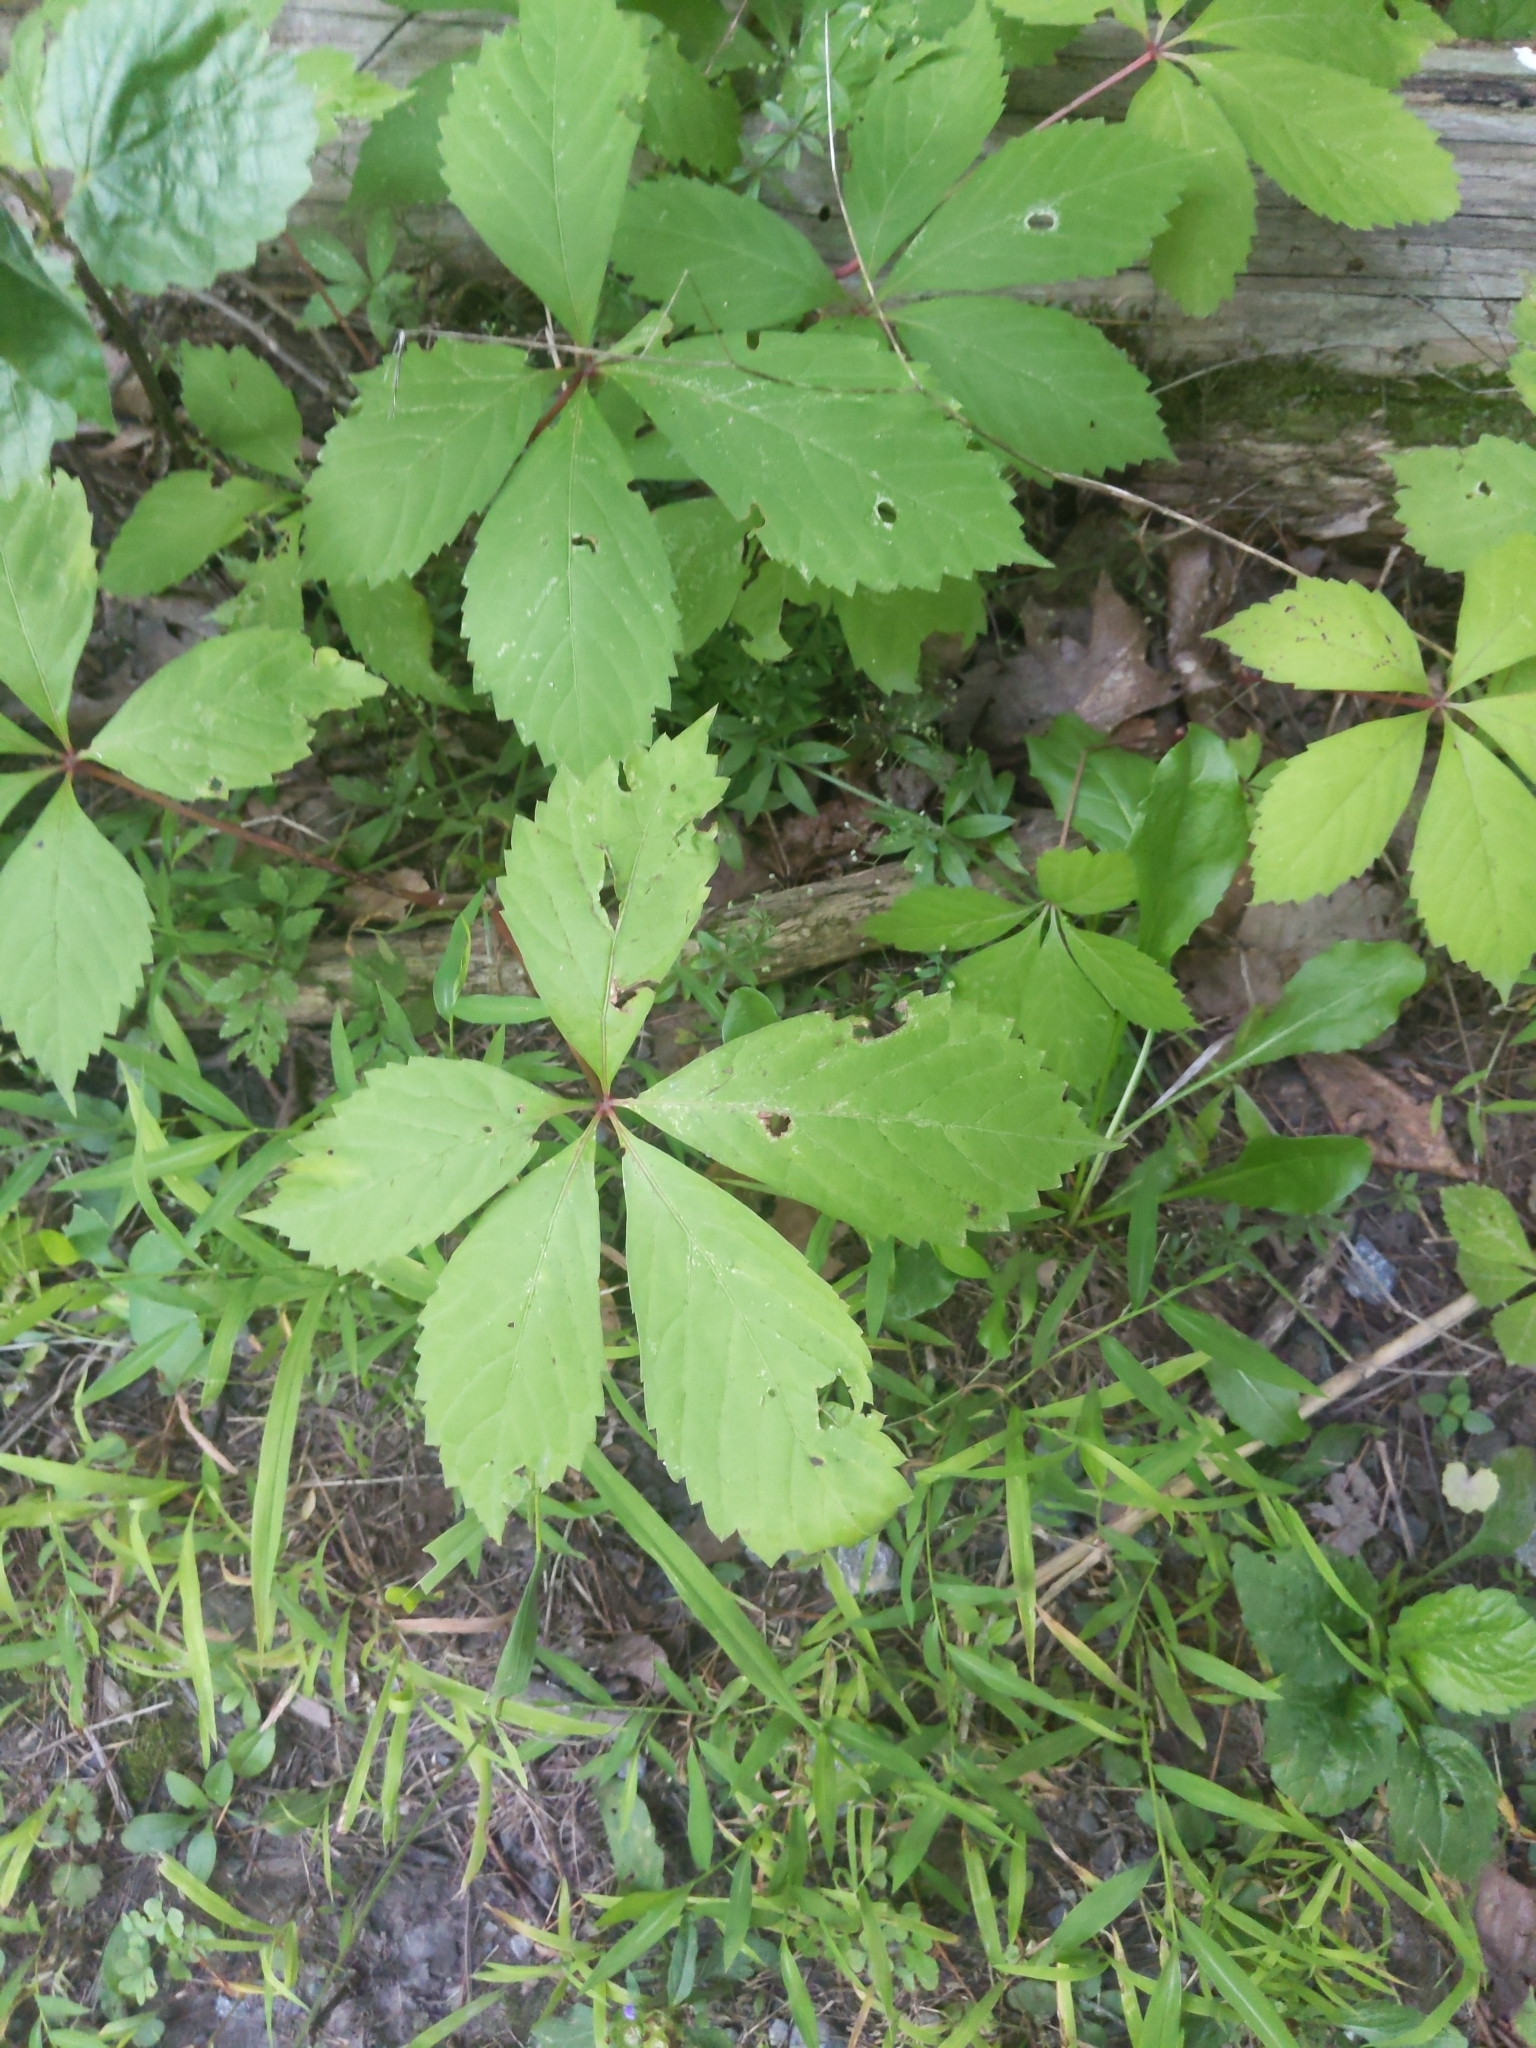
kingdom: Plantae
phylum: Tracheophyta
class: Magnoliopsida
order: Vitales
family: Vitaceae
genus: Parthenocissus
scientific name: Parthenocissus quinquefolia
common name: Virginia-creeper
